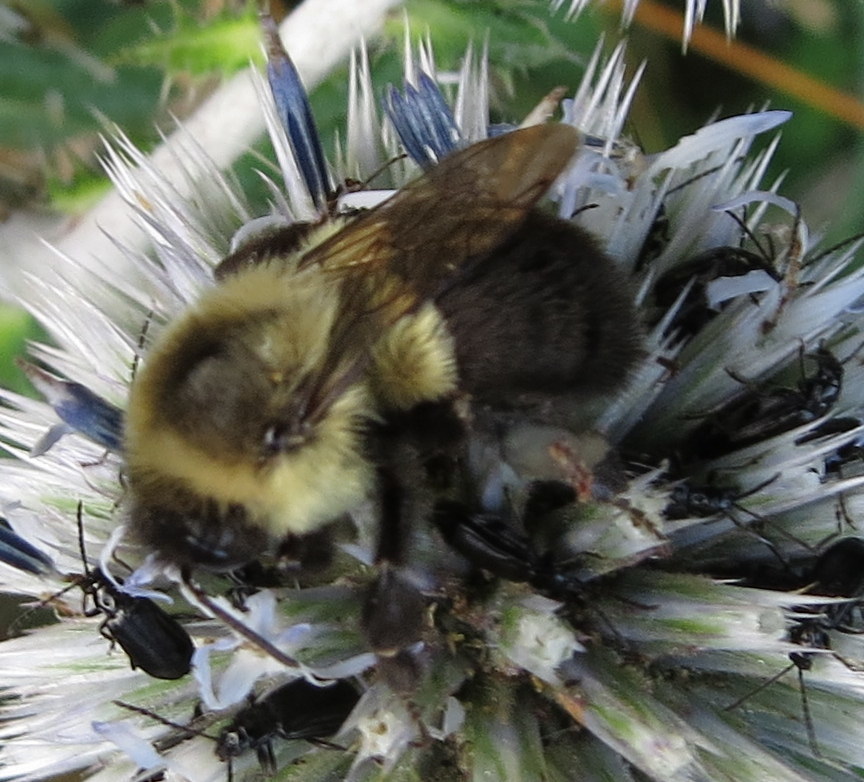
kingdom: Animalia
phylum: Arthropoda
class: Insecta
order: Hymenoptera
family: Apidae
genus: Bombus
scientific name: Bombus impatiens
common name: Common eastern bumble bee
